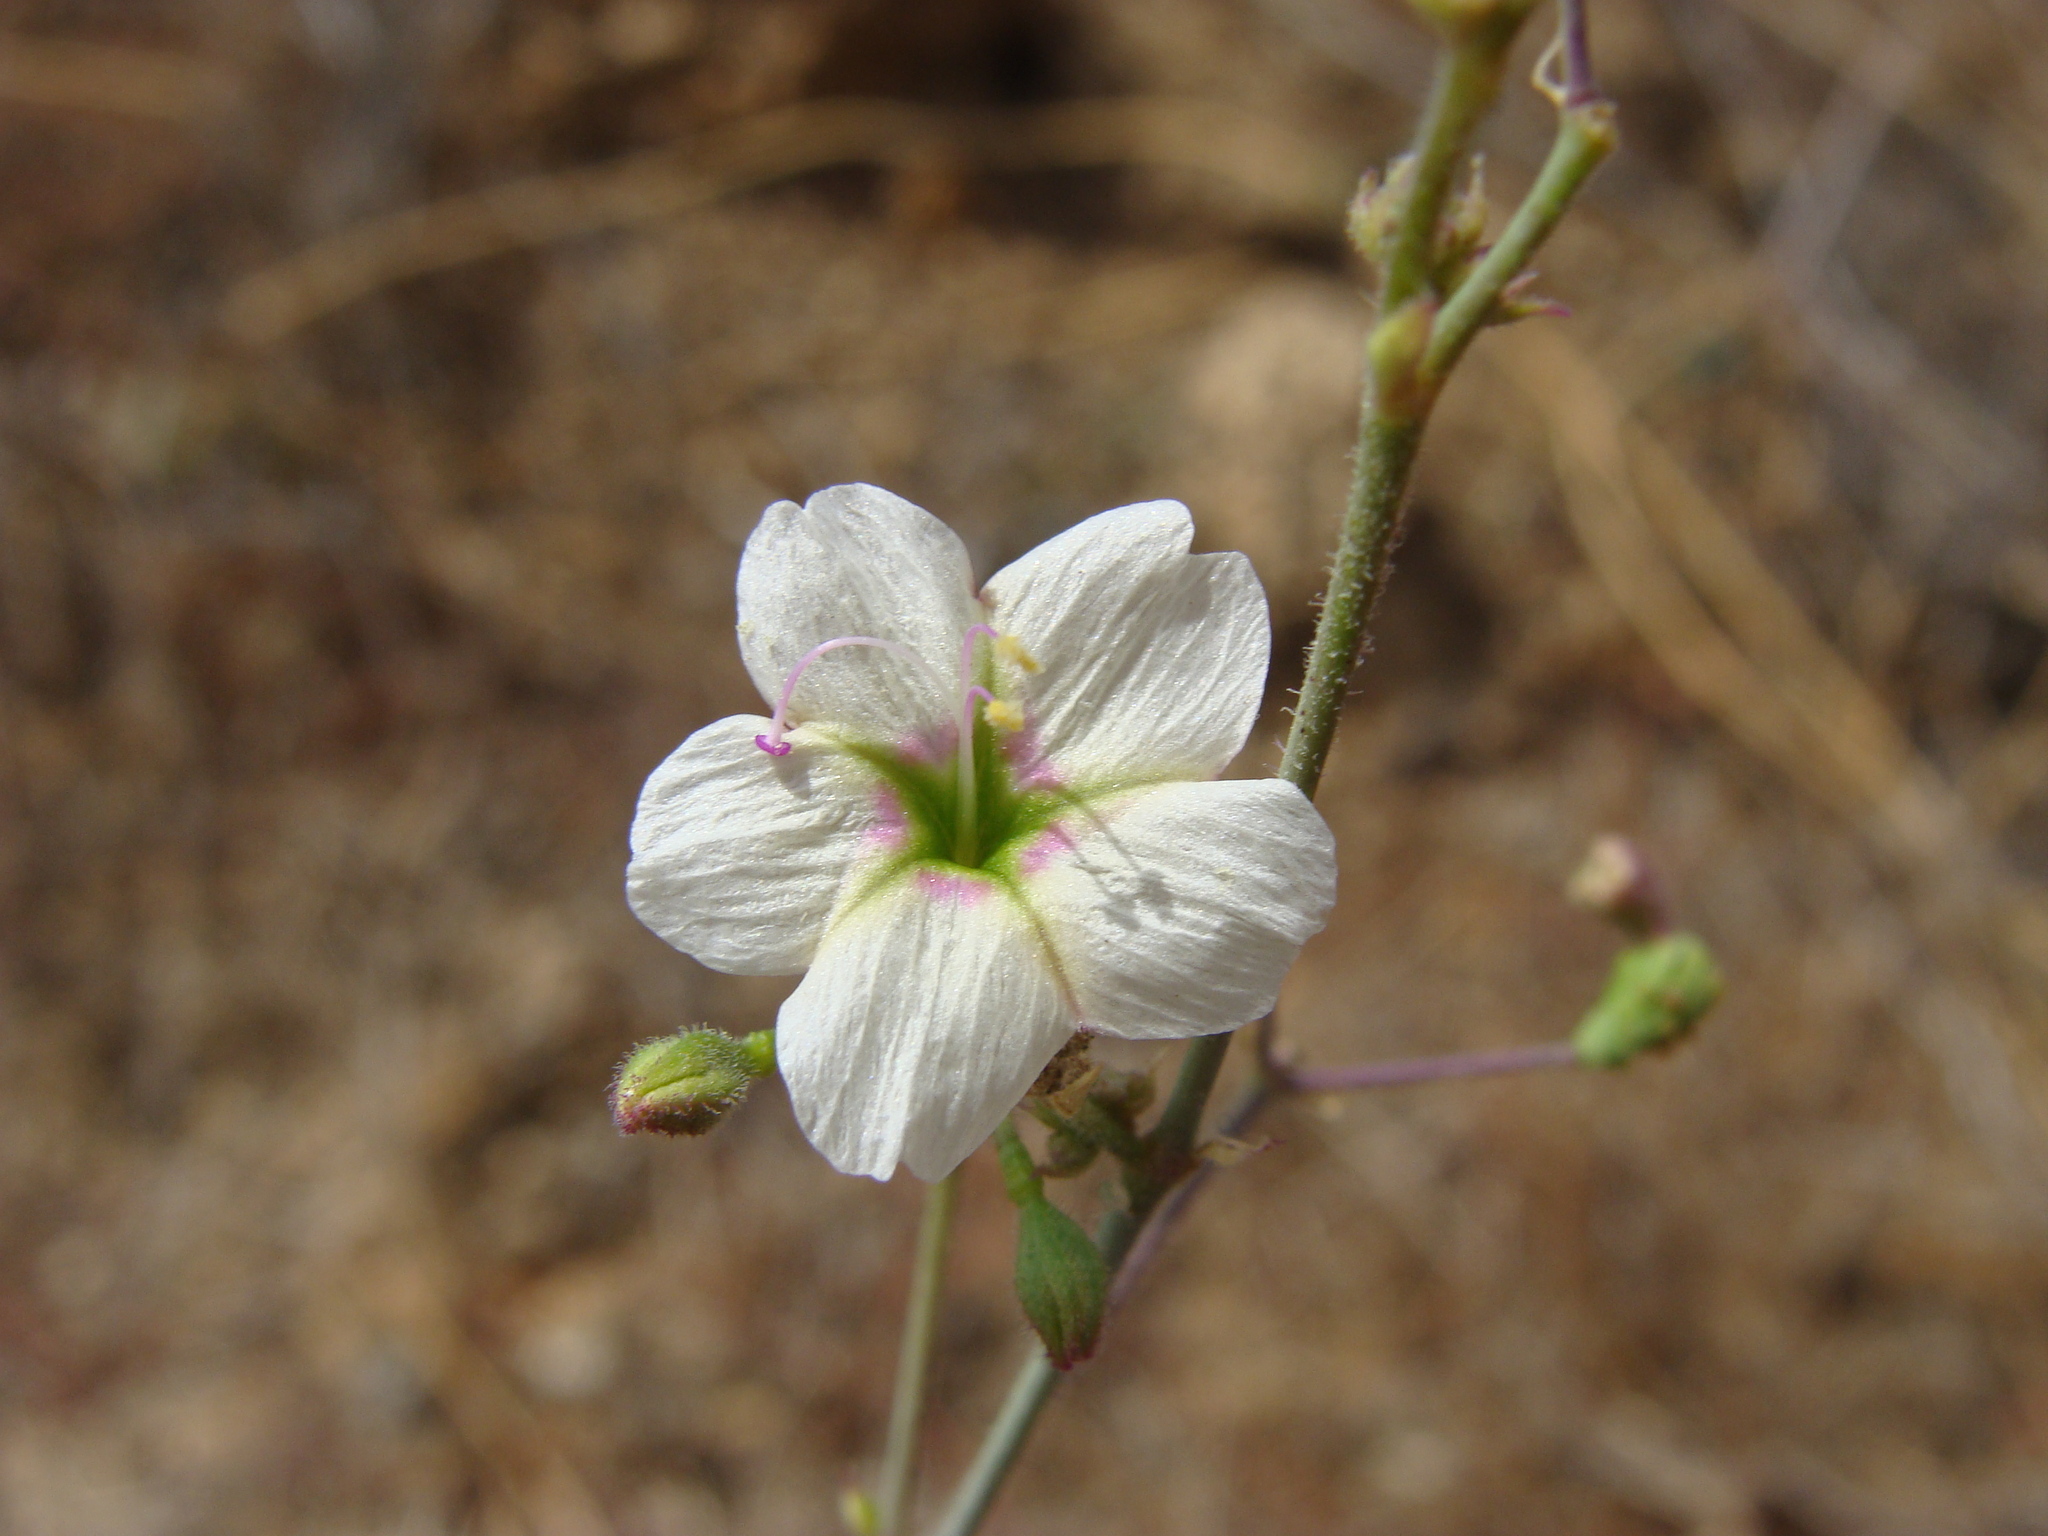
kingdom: Plantae
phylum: Tracheophyta
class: Magnoliopsida
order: Caryophyllales
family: Nyctaginaceae
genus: Commicarpus
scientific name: Commicarpus brandegeei
